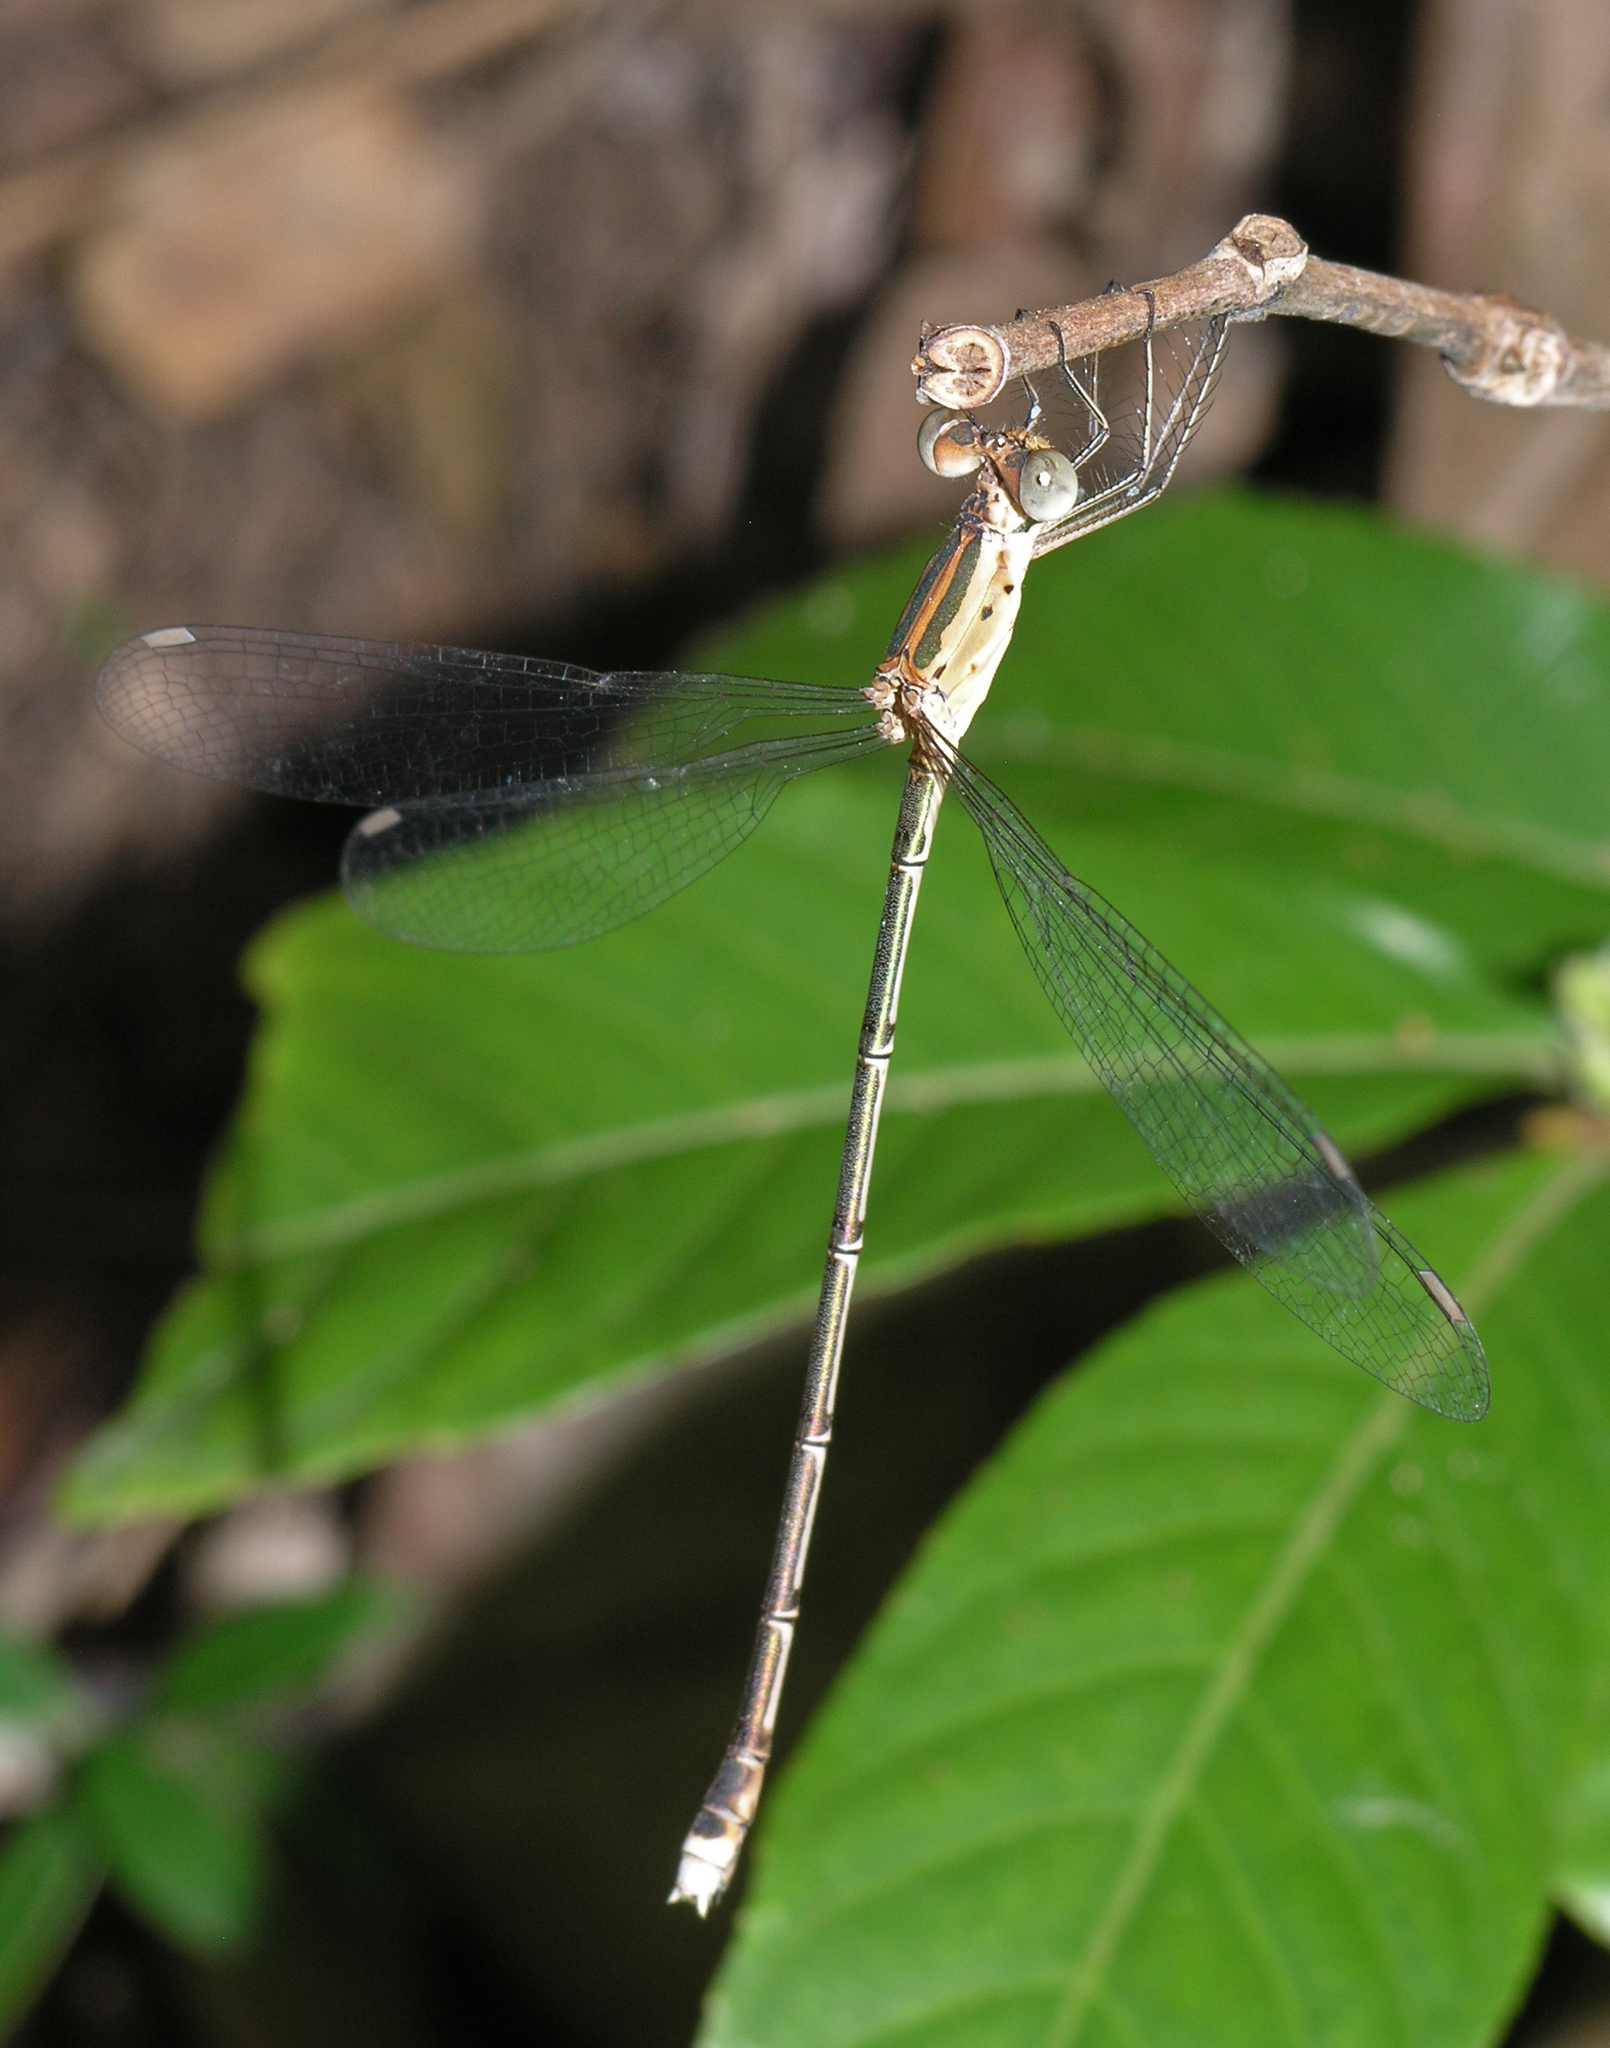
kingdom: Animalia
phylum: Arthropoda
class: Insecta
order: Odonata
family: Lestidae
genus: Lestes
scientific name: Lestes elatus
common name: Emerald spreadwing
